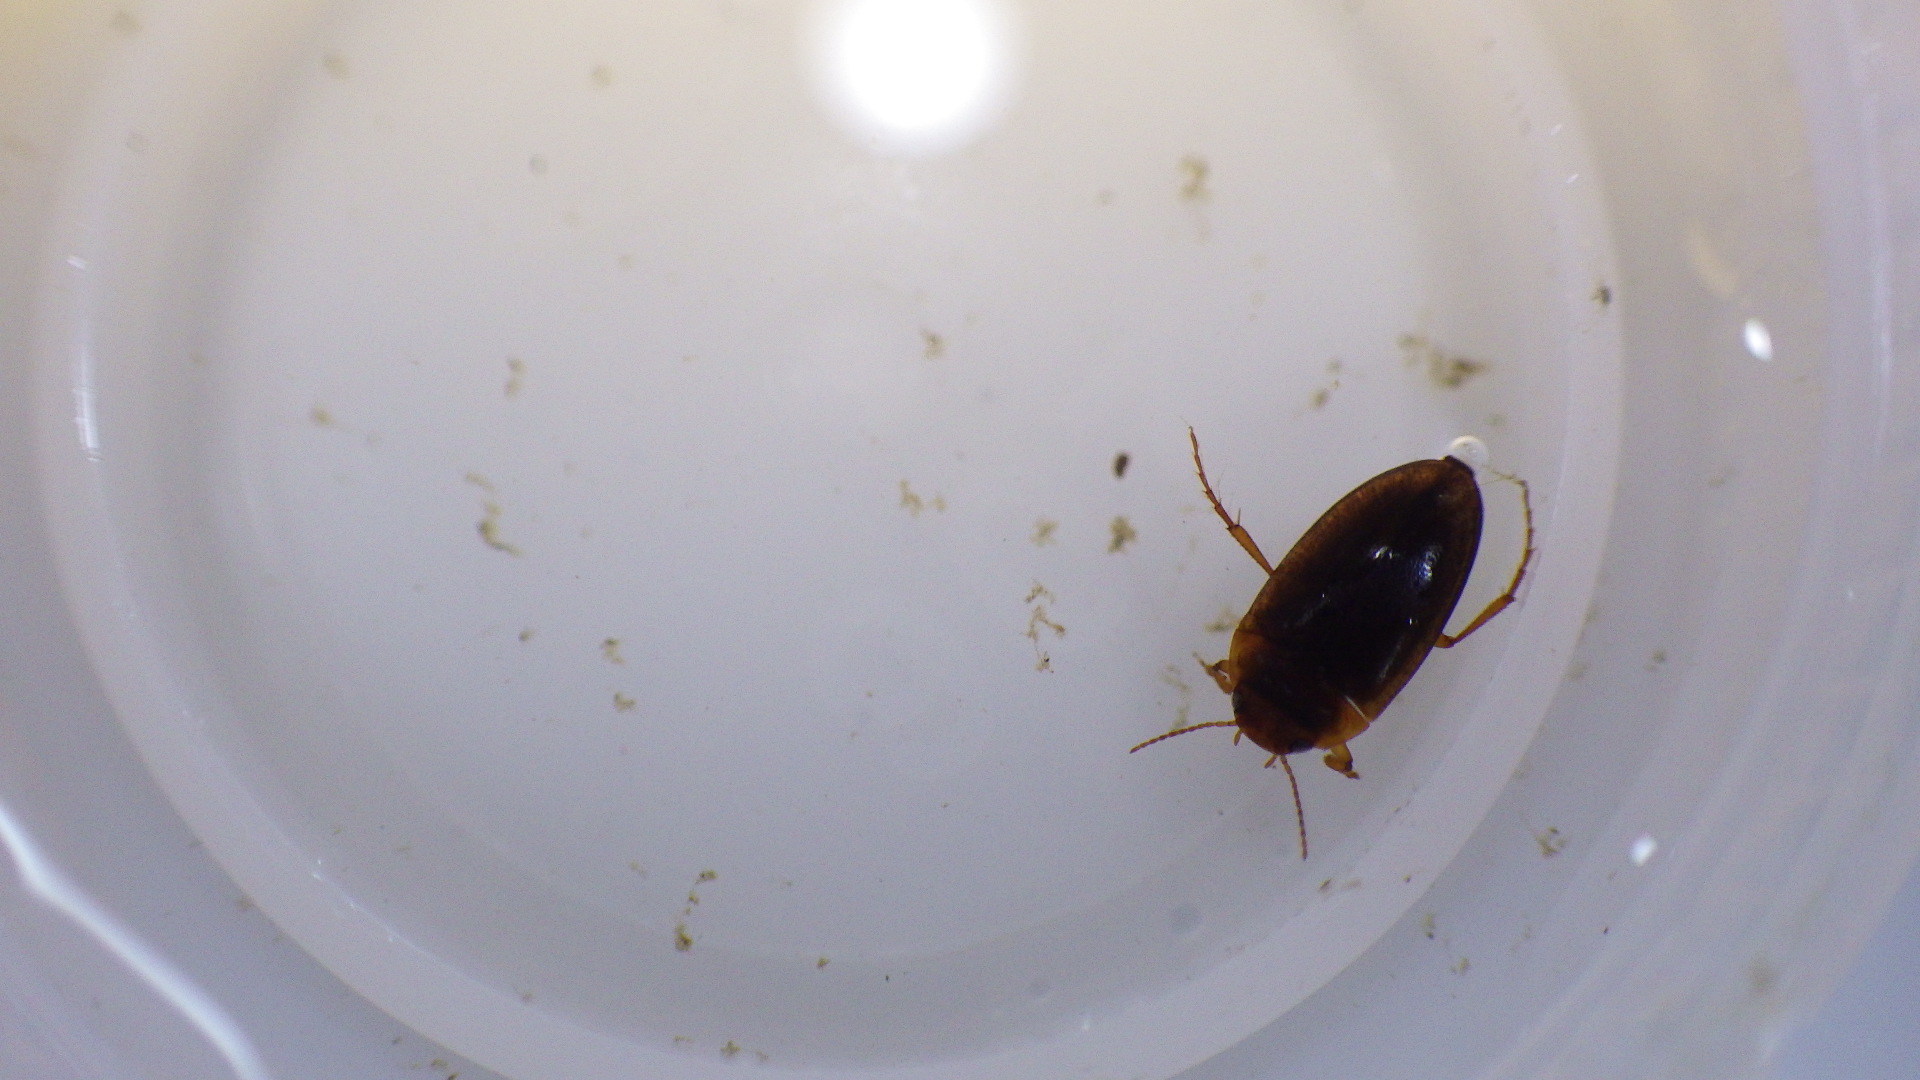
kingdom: Animalia
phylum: Arthropoda
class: Insecta
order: Coleoptera
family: Dytiscidae
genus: Hydrocolus
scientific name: Hydrocolus
